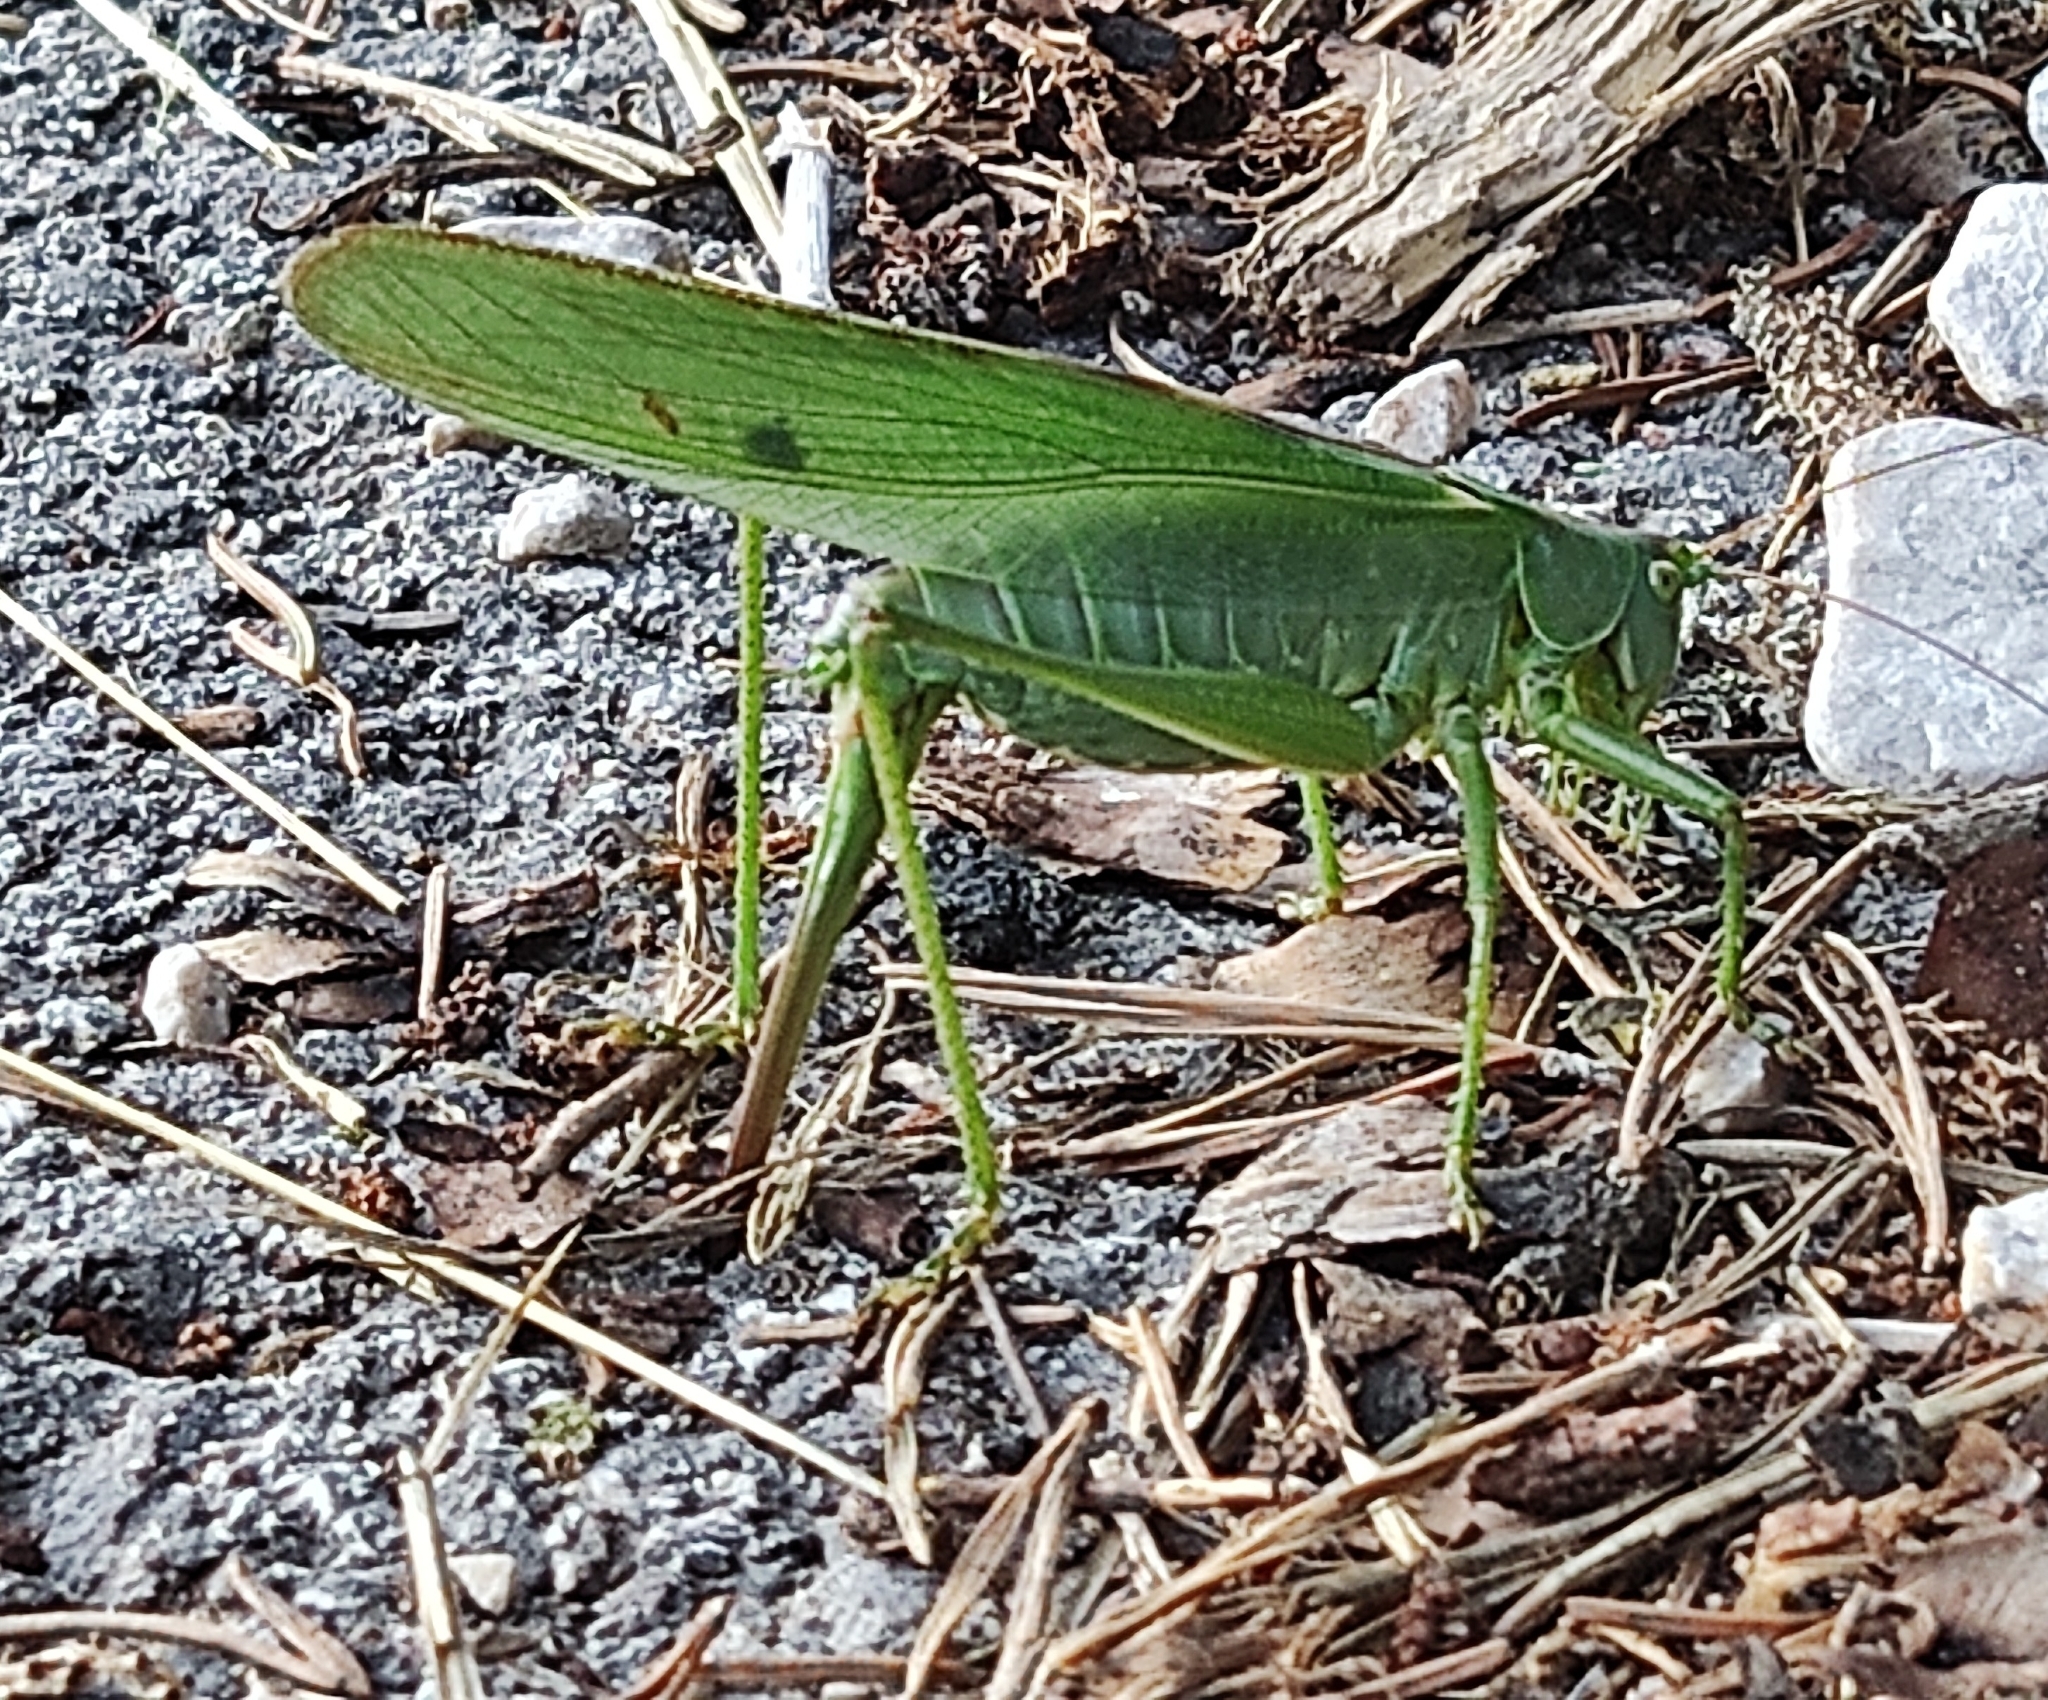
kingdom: Animalia
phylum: Arthropoda
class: Insecta
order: Orthoptera
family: Tettigoniidae
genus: Tettigonia
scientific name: Tettigonia viridissima
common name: Great green bush-cricket
